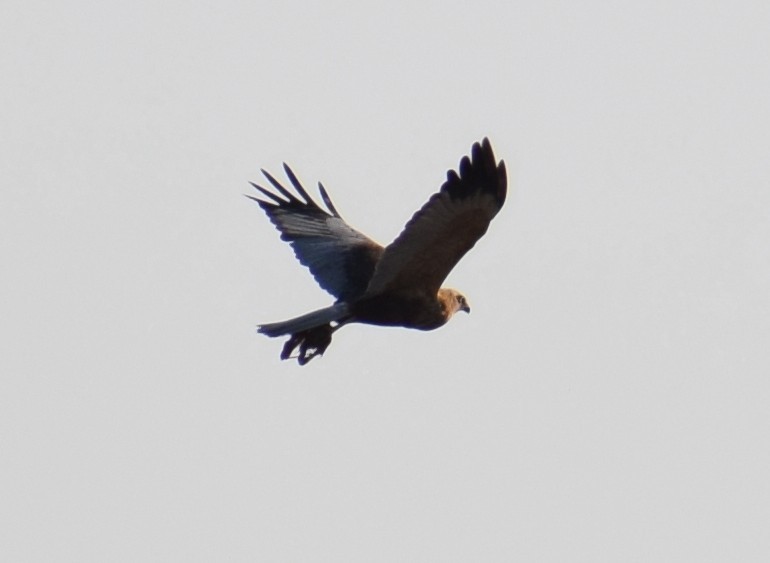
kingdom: Animalia
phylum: Chordata
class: Aves
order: Accipitriformes
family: Accipitridae
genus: Circus
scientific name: Circus aeruginosus
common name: Western marsh harrier
